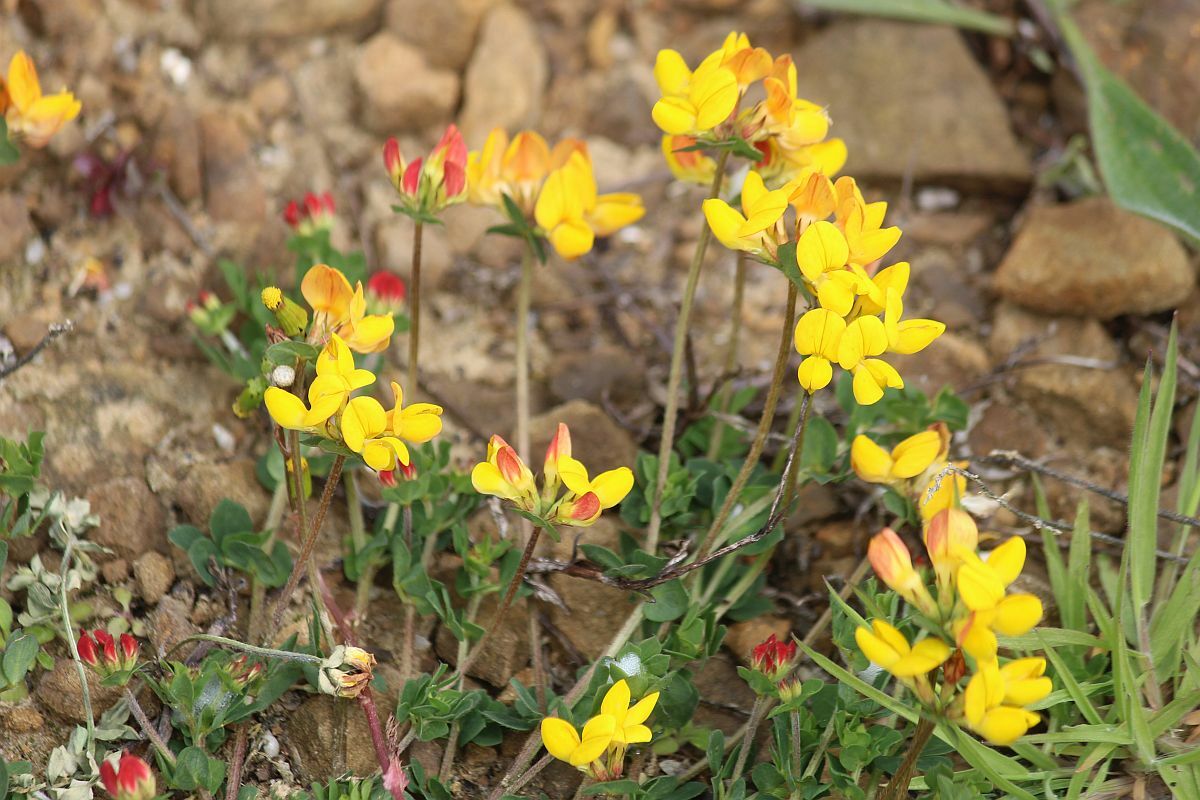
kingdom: Plantae
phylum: Tracheophyta
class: Magnoliopsida
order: Fabales
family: Fabaceae
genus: Lotus
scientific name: Lotus corniculatus
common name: Common bird's-foot-trefoil
